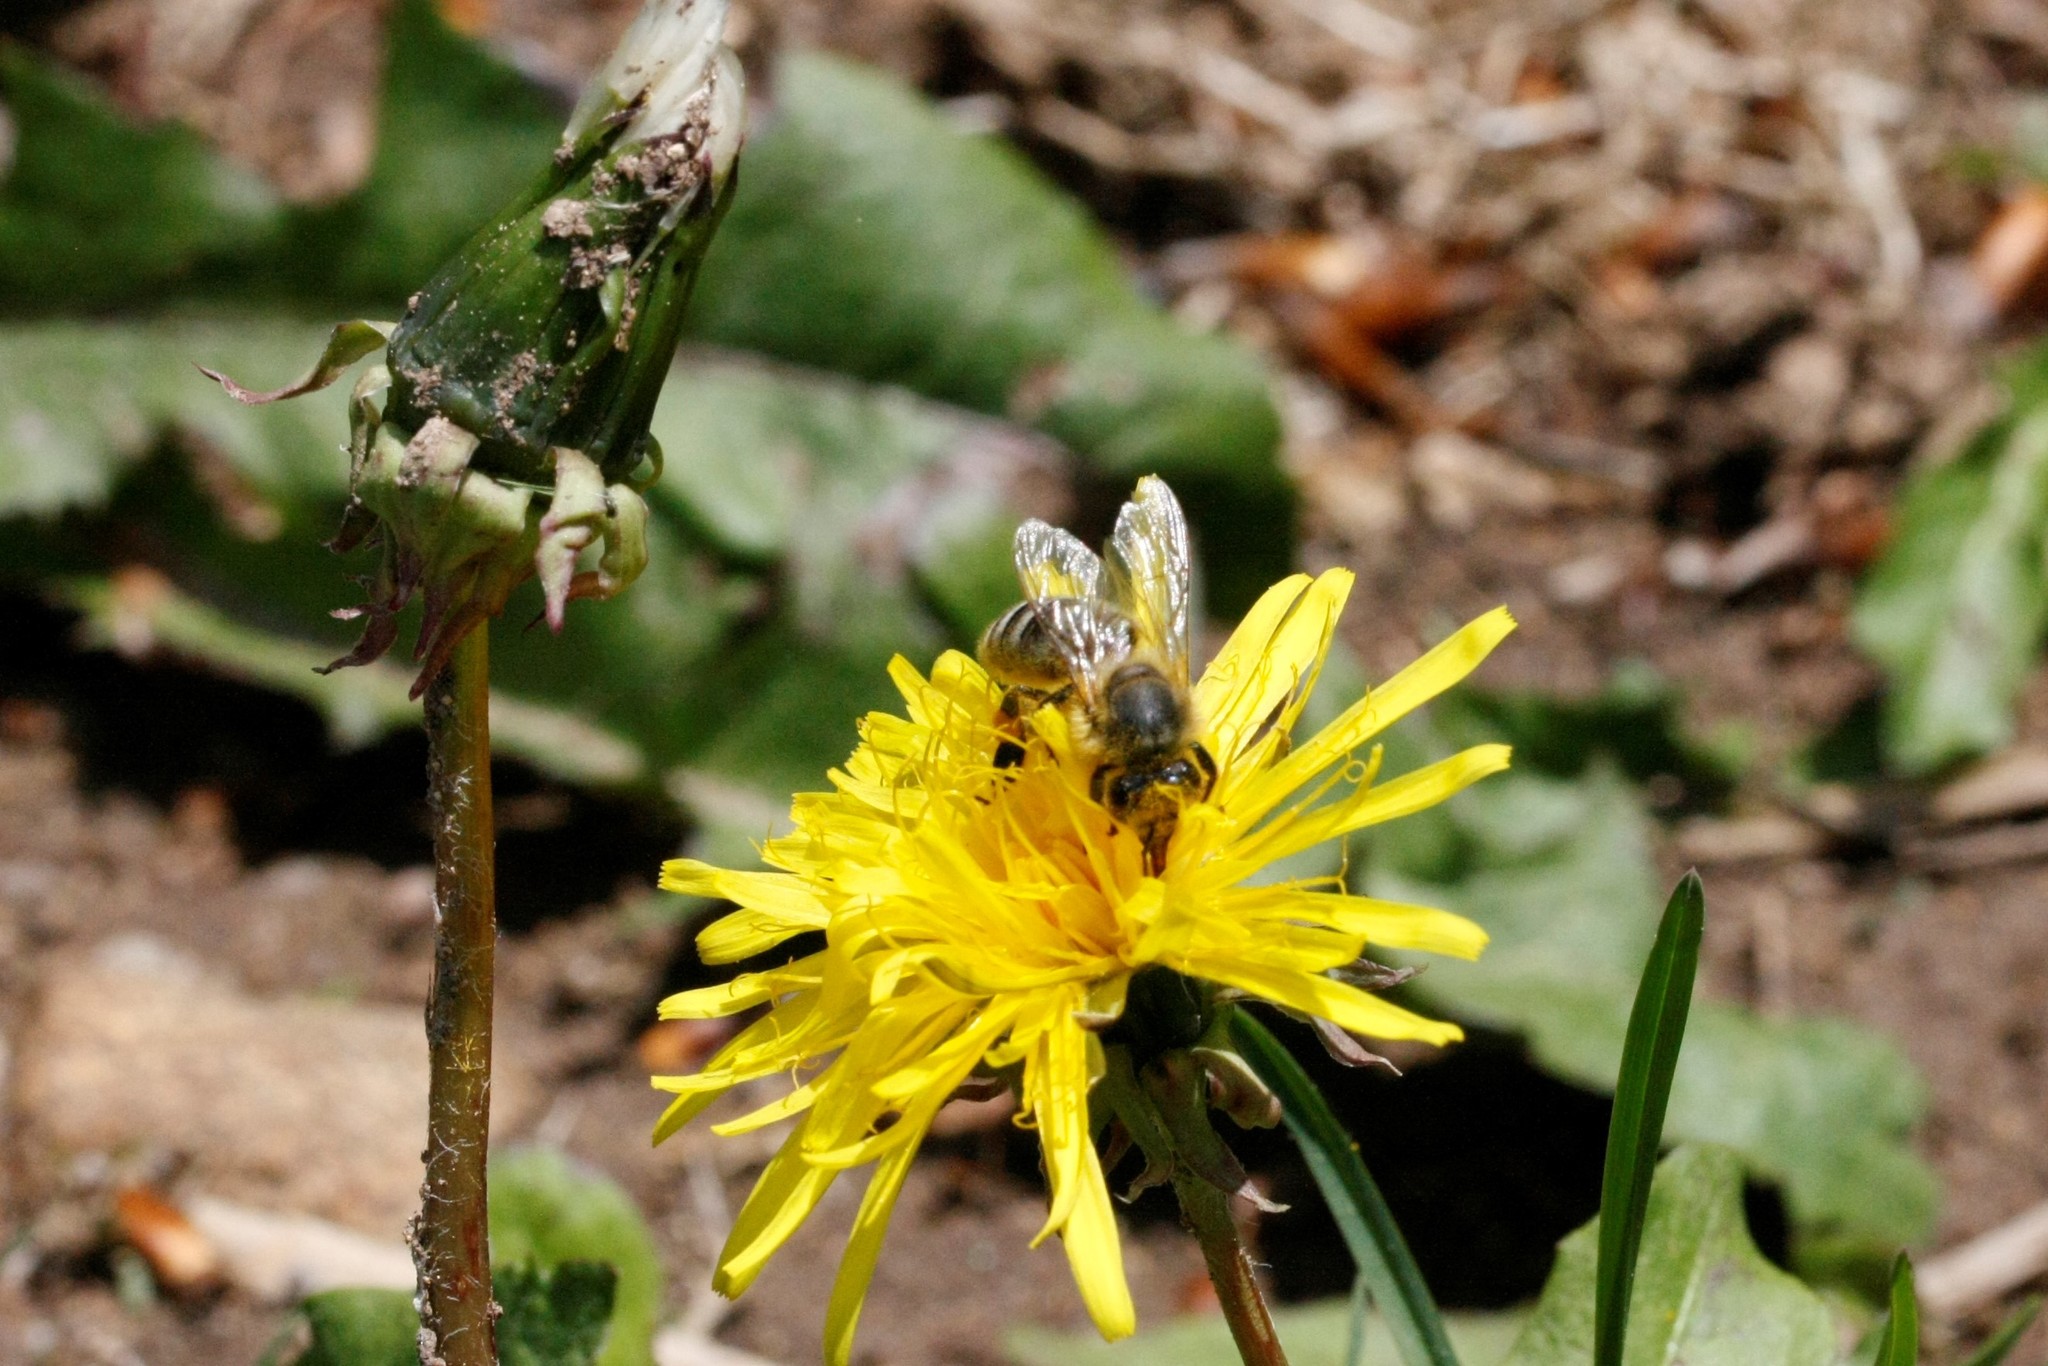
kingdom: Animalia
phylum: Arthropoda
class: Insecta
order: Hymenoptera
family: Apidae
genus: Apis
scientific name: Apis mellifera
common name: Honey bee
